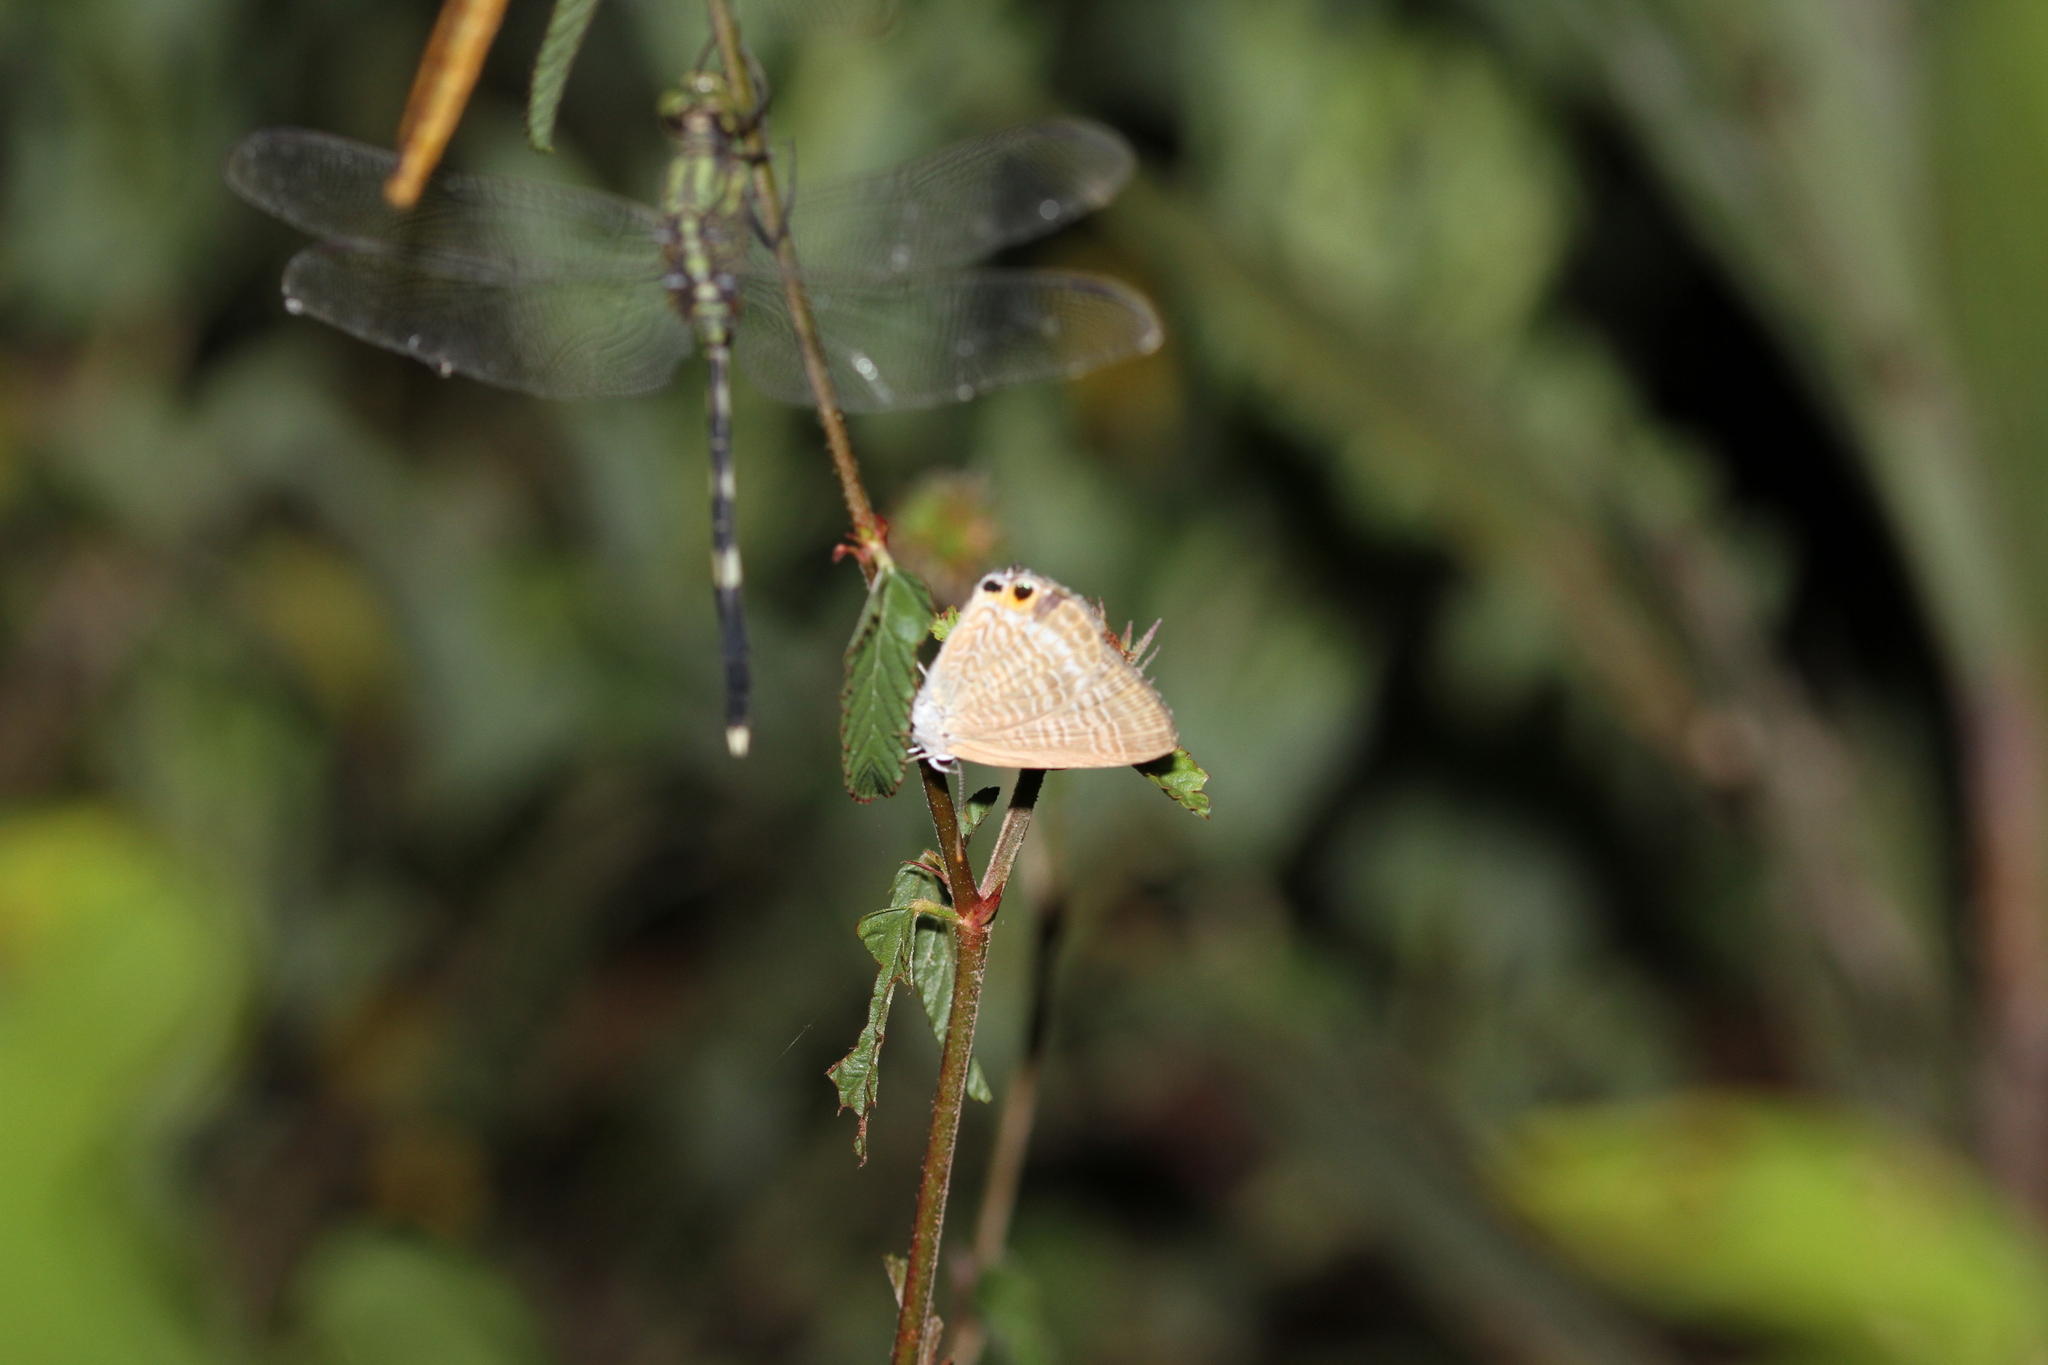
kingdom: Animalia
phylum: Arthropoda
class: Insecta
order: Lepidoptera
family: Lycaenidae
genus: Lampides
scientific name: Lampides boeticus
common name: Long-tailed blue
